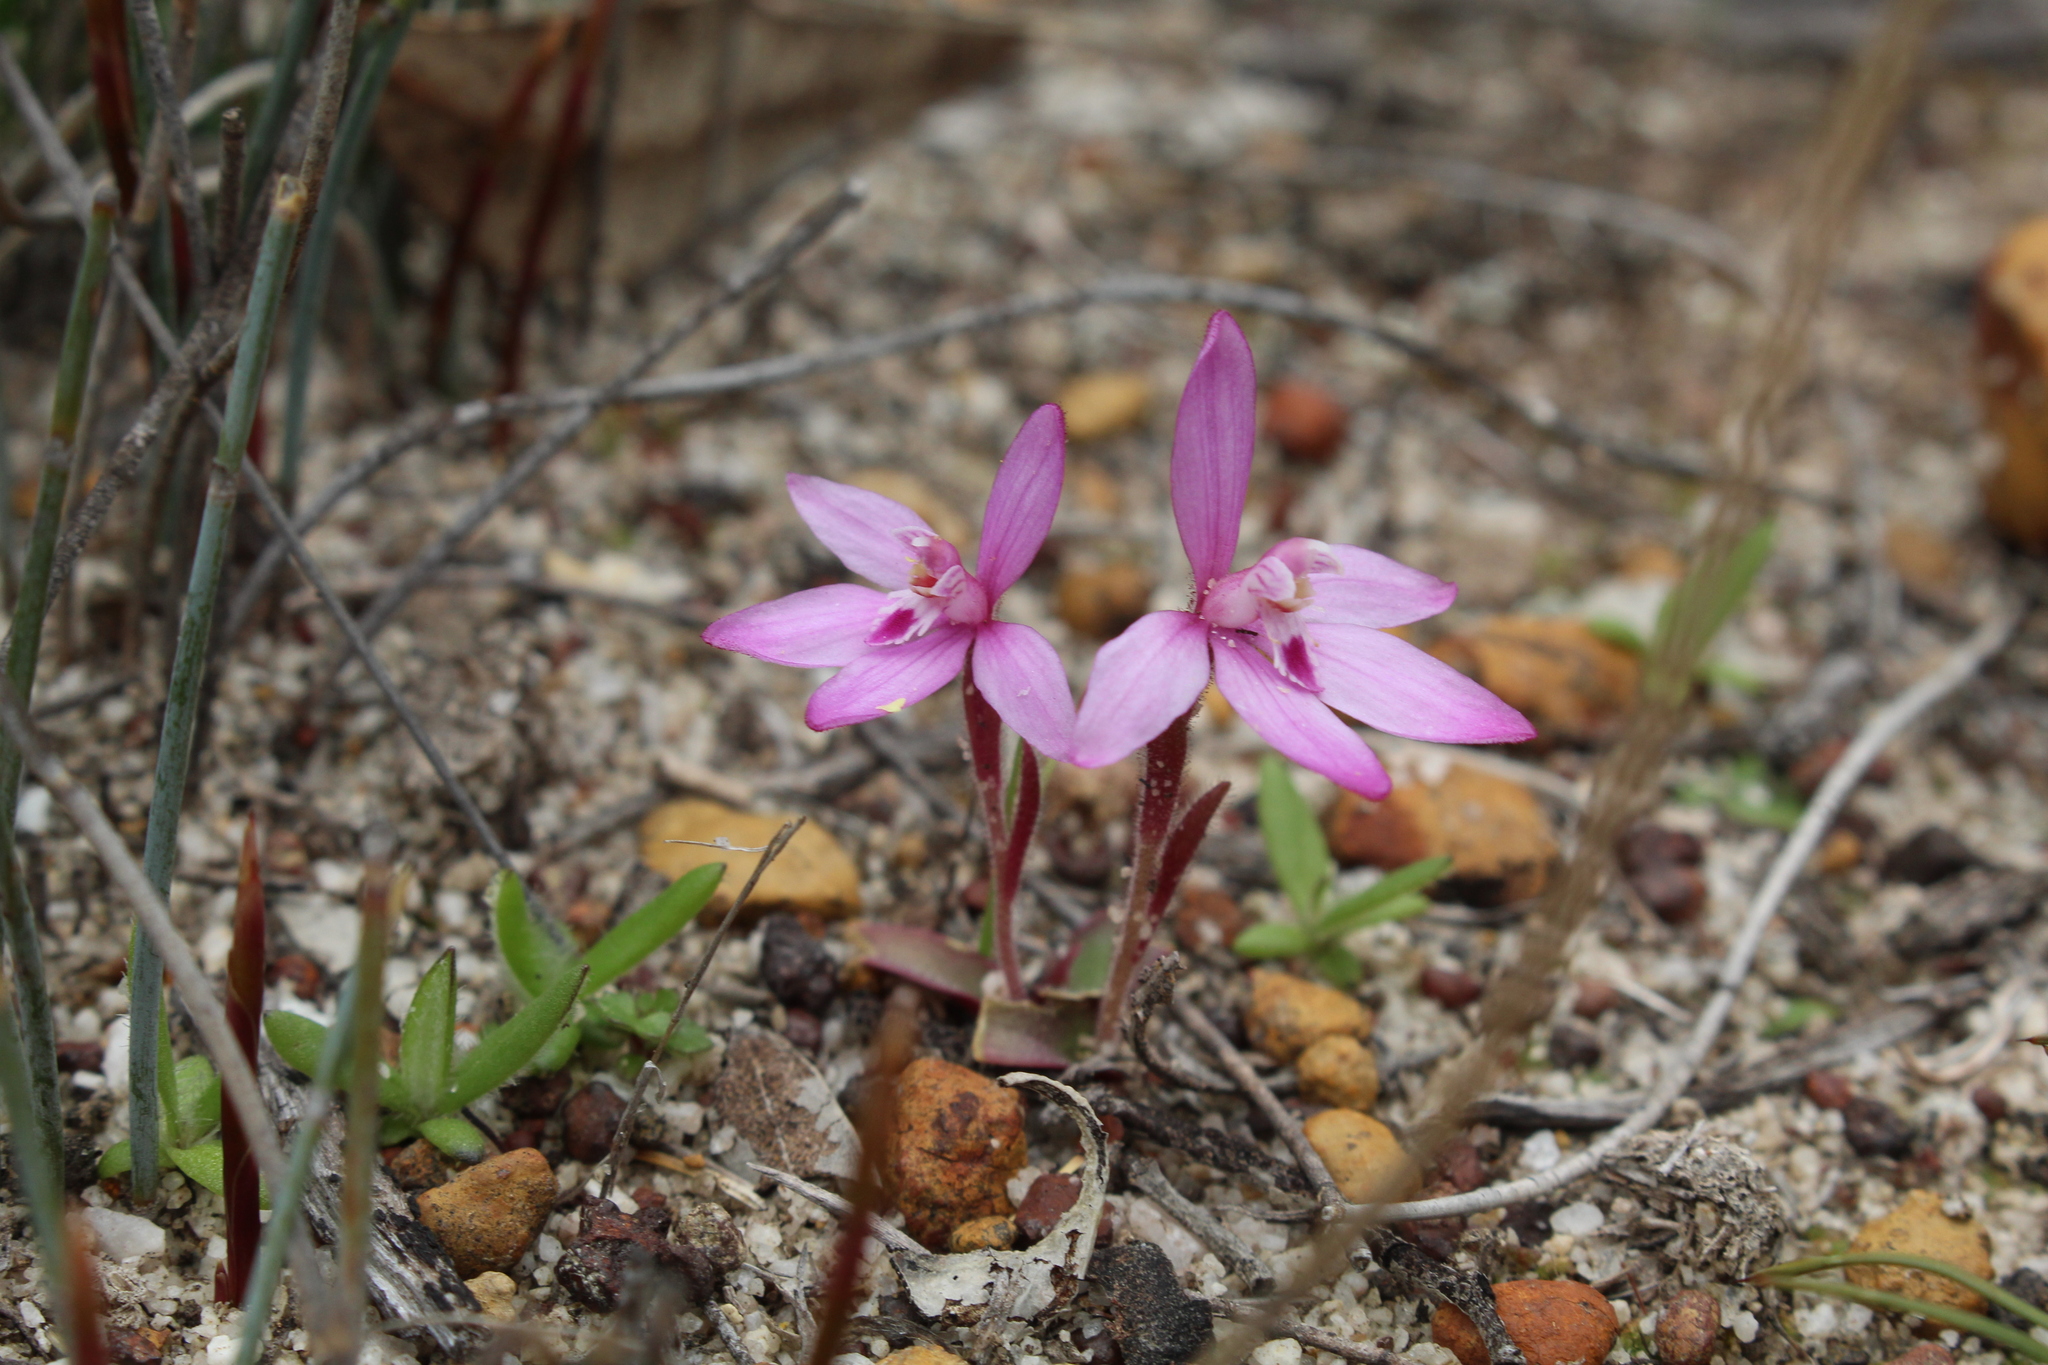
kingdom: Plantae
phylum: Tracheophyta
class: Liliopsida
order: Asparagales
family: Orchidaceae
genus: Caladenia
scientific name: Caladenia reptans
